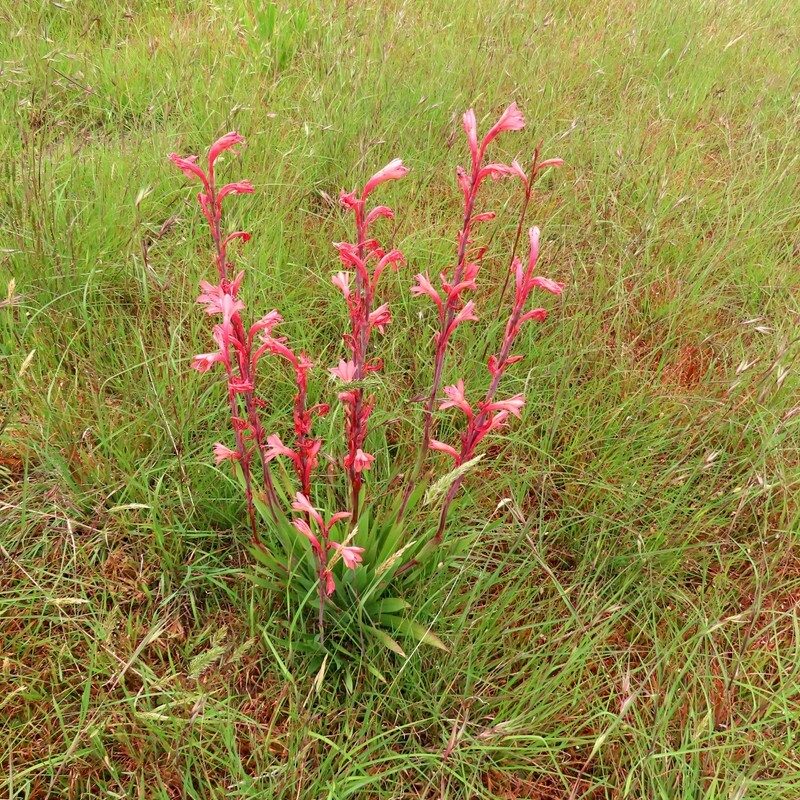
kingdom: Plantae
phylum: Tracheophyta
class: Liliopsida
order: Asparagales
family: Iridaceae
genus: Watsonia
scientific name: Watsonia meriana
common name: Bulbil bugle-lily
